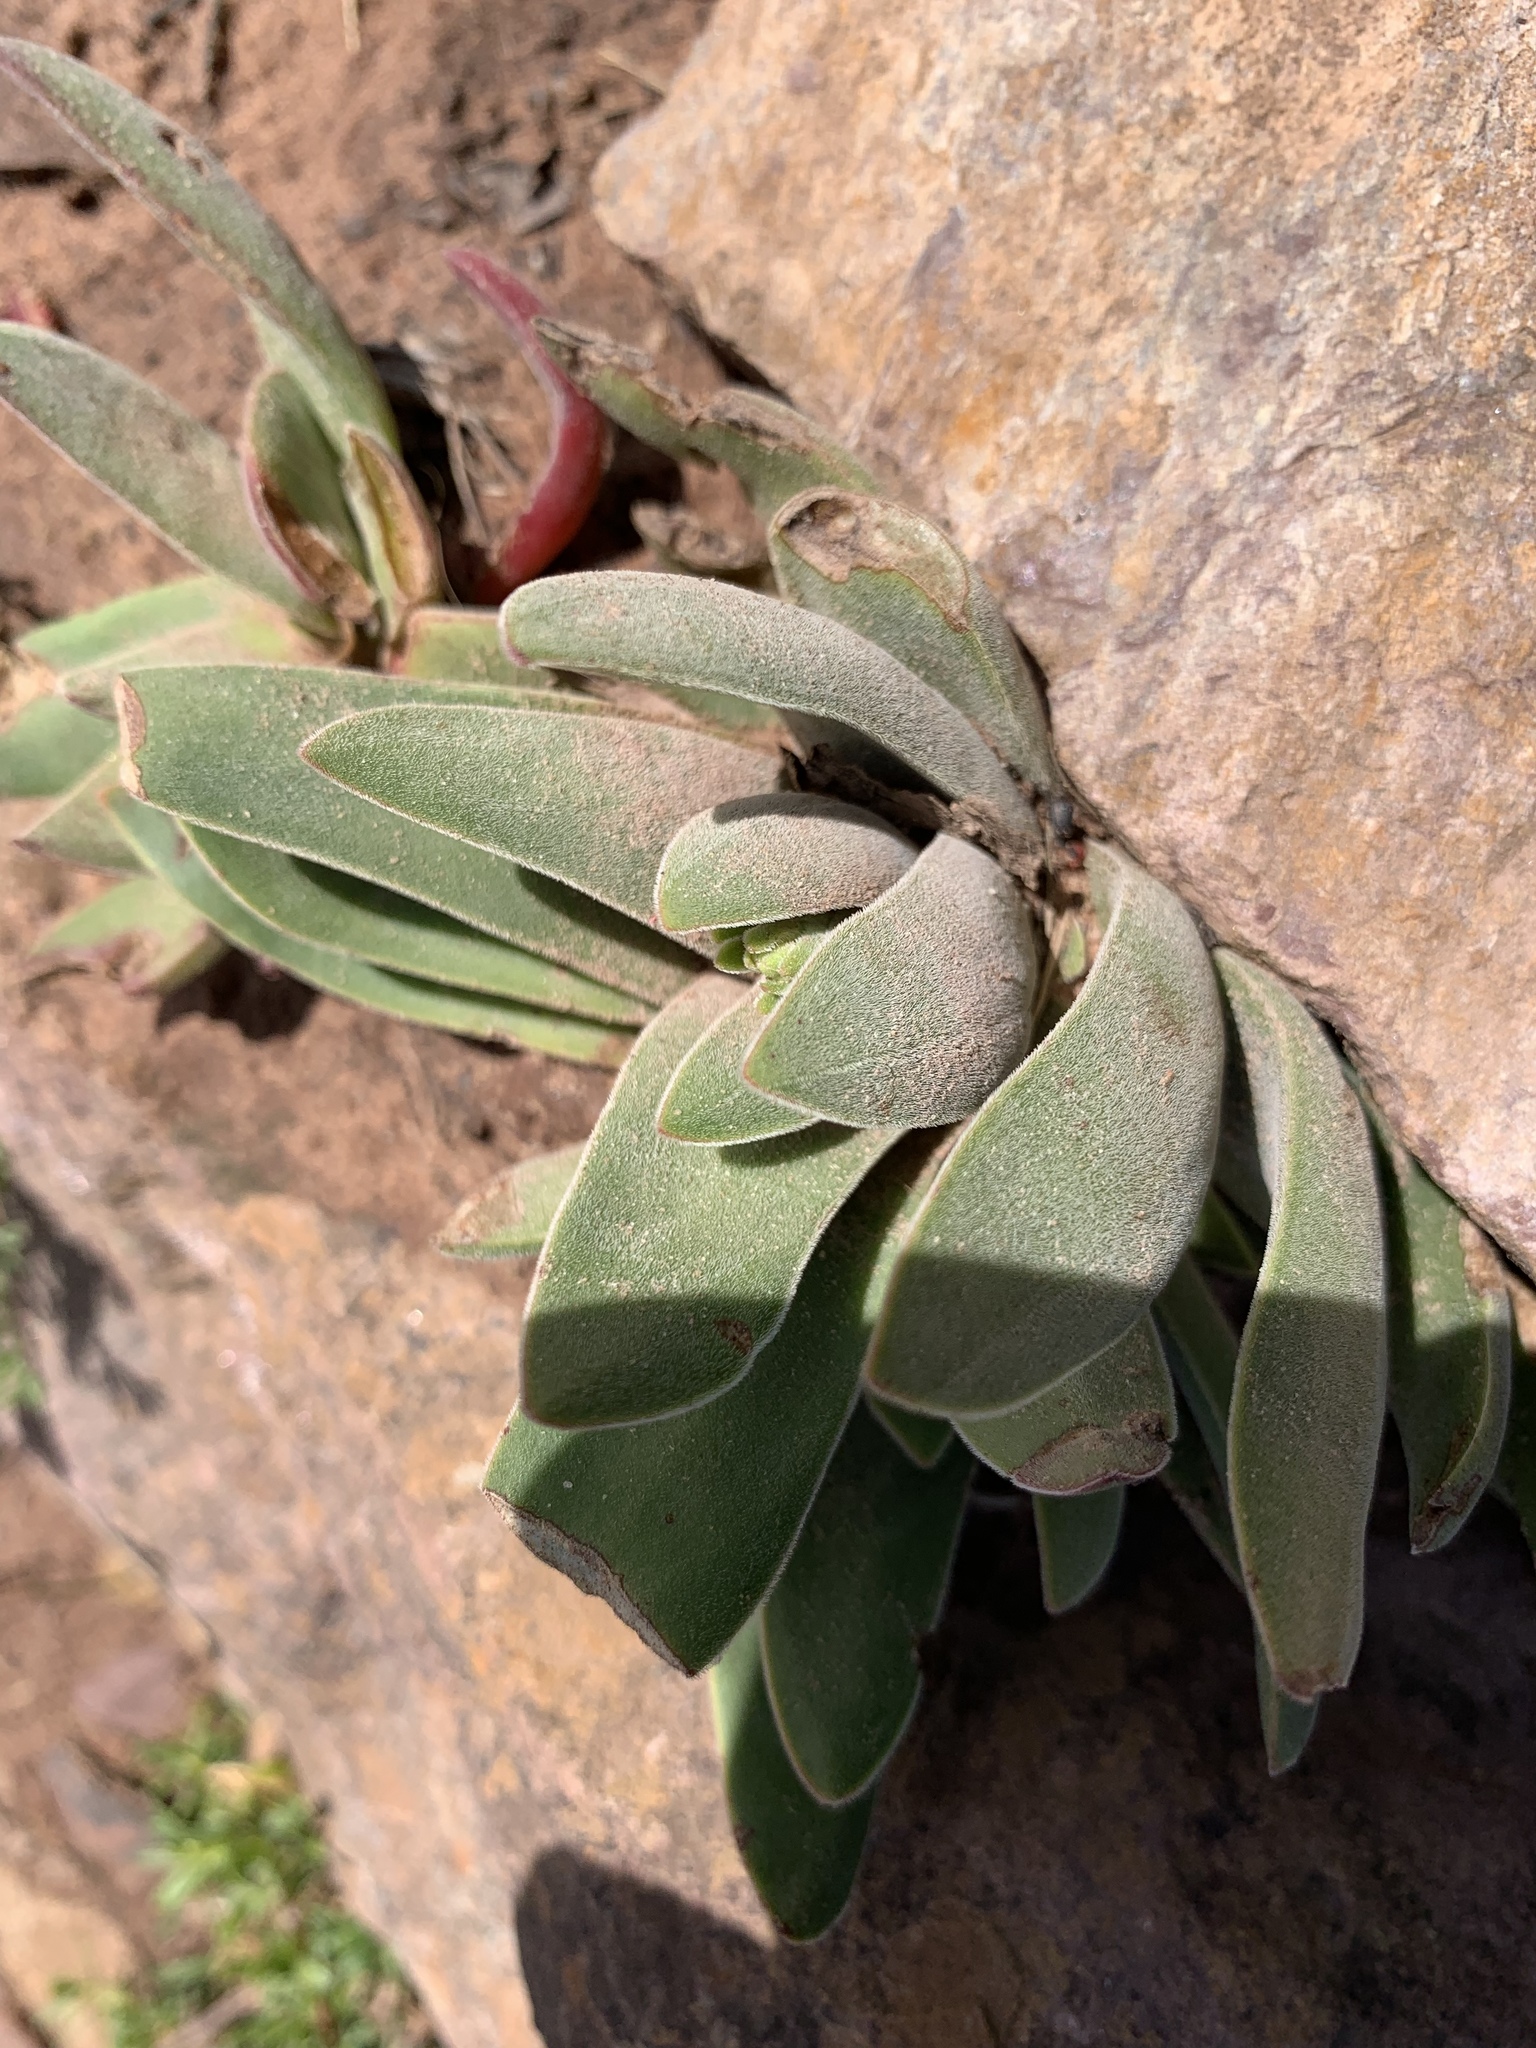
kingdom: Plantae
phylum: Tracheophyta
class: Magnoliopsida
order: Saxifragales
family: Crassulaceae
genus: Crassula
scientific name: Crassula perfoliata
